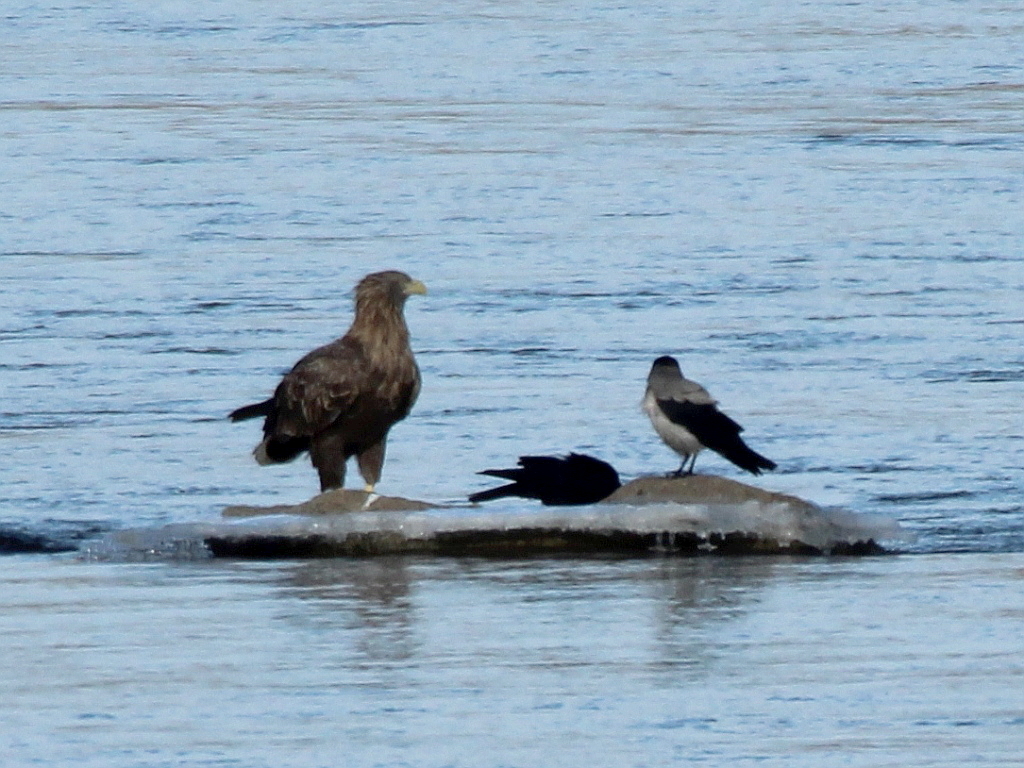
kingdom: Animalia
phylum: Chordata
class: Aves
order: Accipitriformes
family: Accipitridae
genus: Haliaeetus
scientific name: Haliaeetus albicilla
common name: White-tailed eagle
